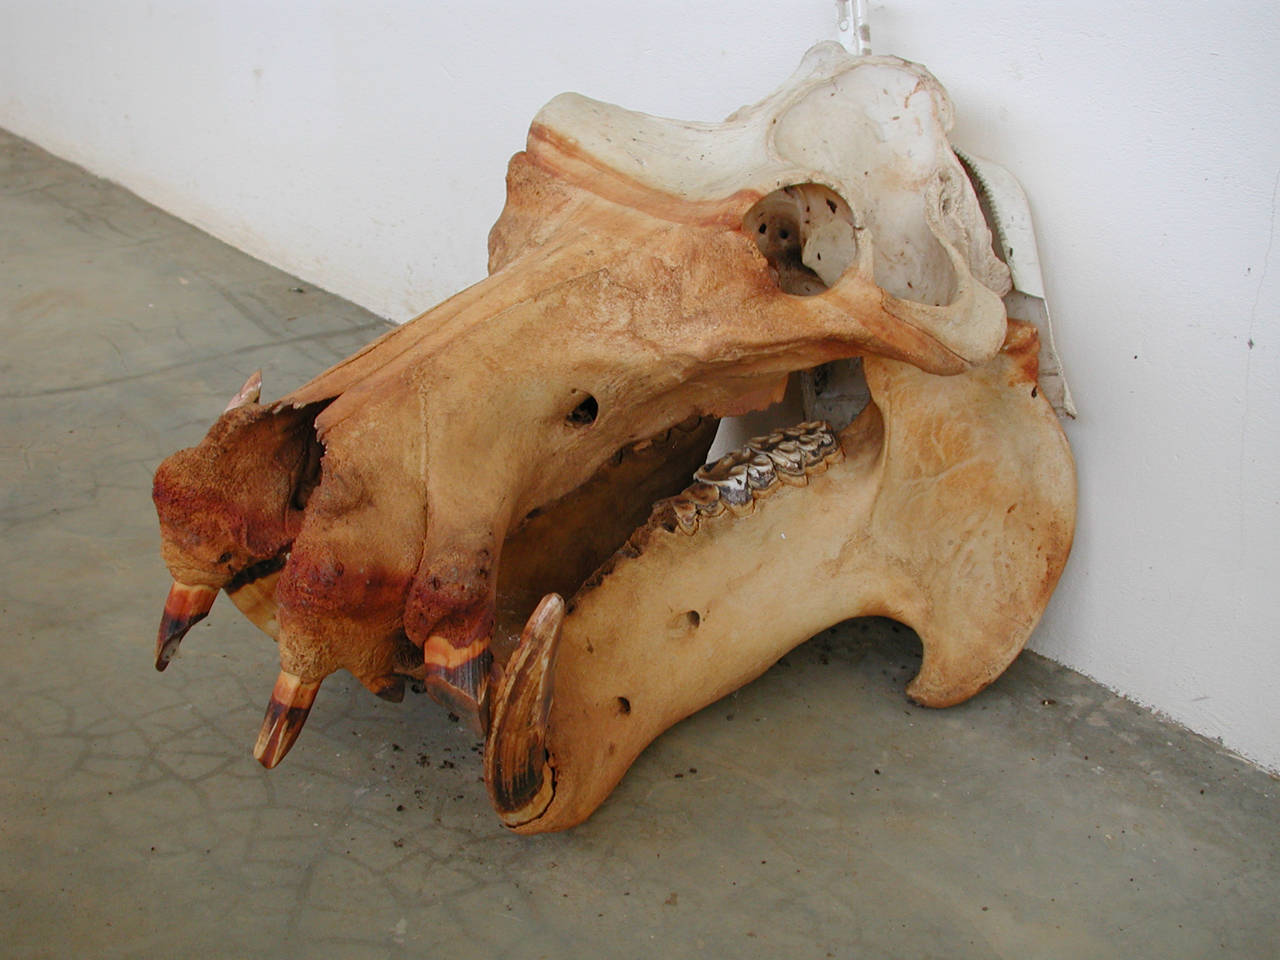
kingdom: Animalia
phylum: Chordata
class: Mammalia
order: Artiodactyla
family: Hippopotamidae
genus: Hippopotamus
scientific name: Hippopotamus amphibius
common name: Common hippopotamus
